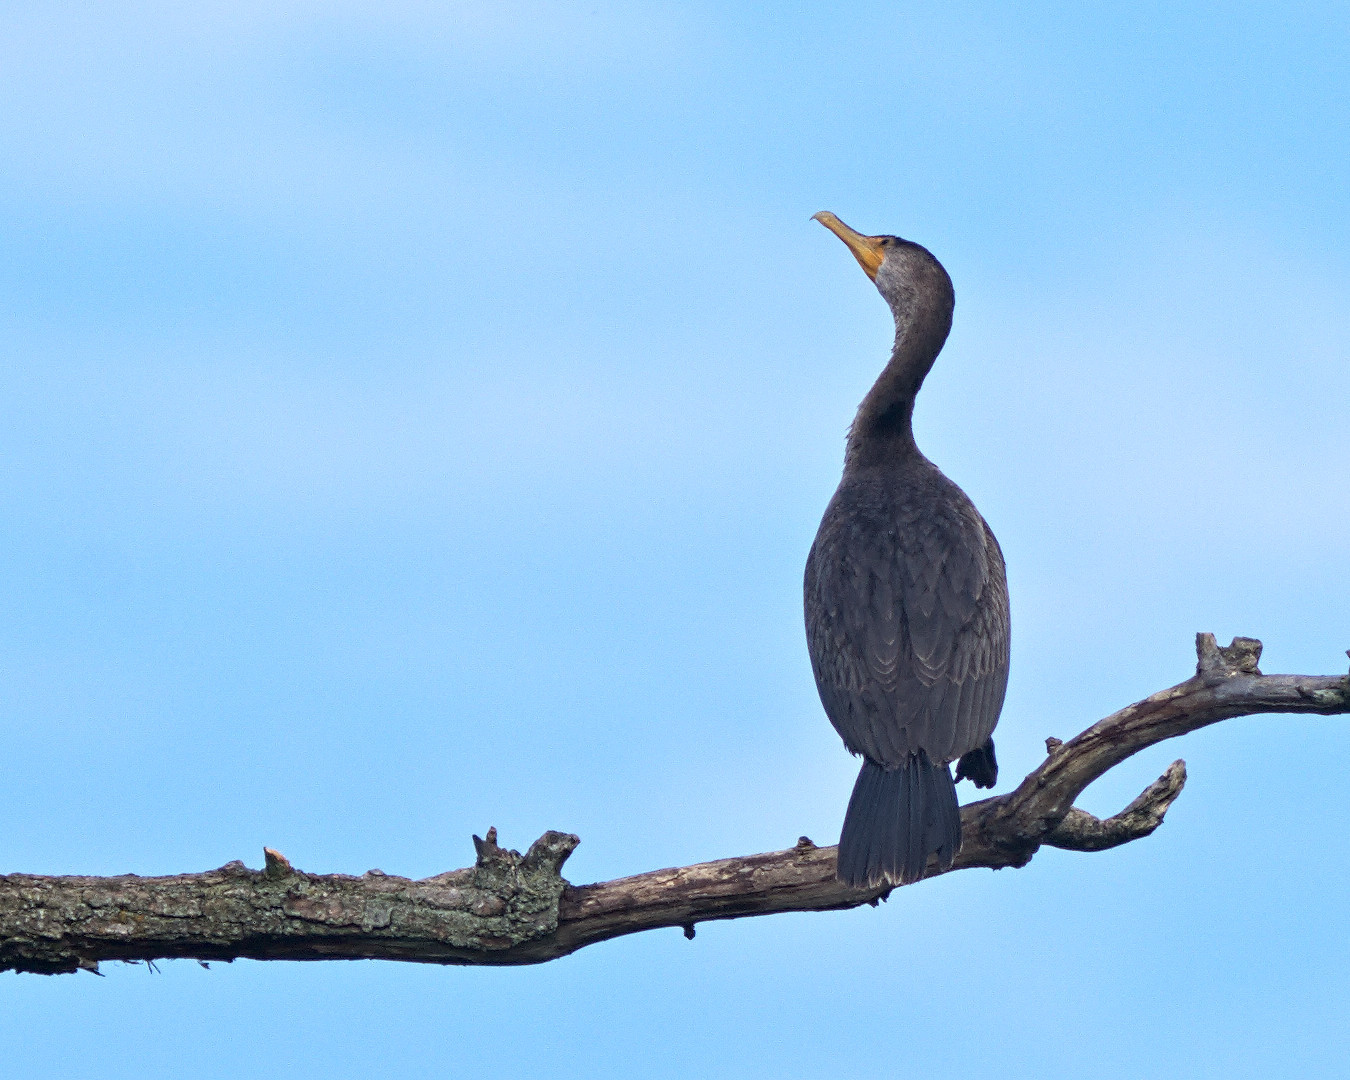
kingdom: Animalia
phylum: Chordata
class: Aves
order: Suliformes
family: Phalacrocoracidae
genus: Phalacrocorax
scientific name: Phalacrocorax auritus
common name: Double-crested cormorant
